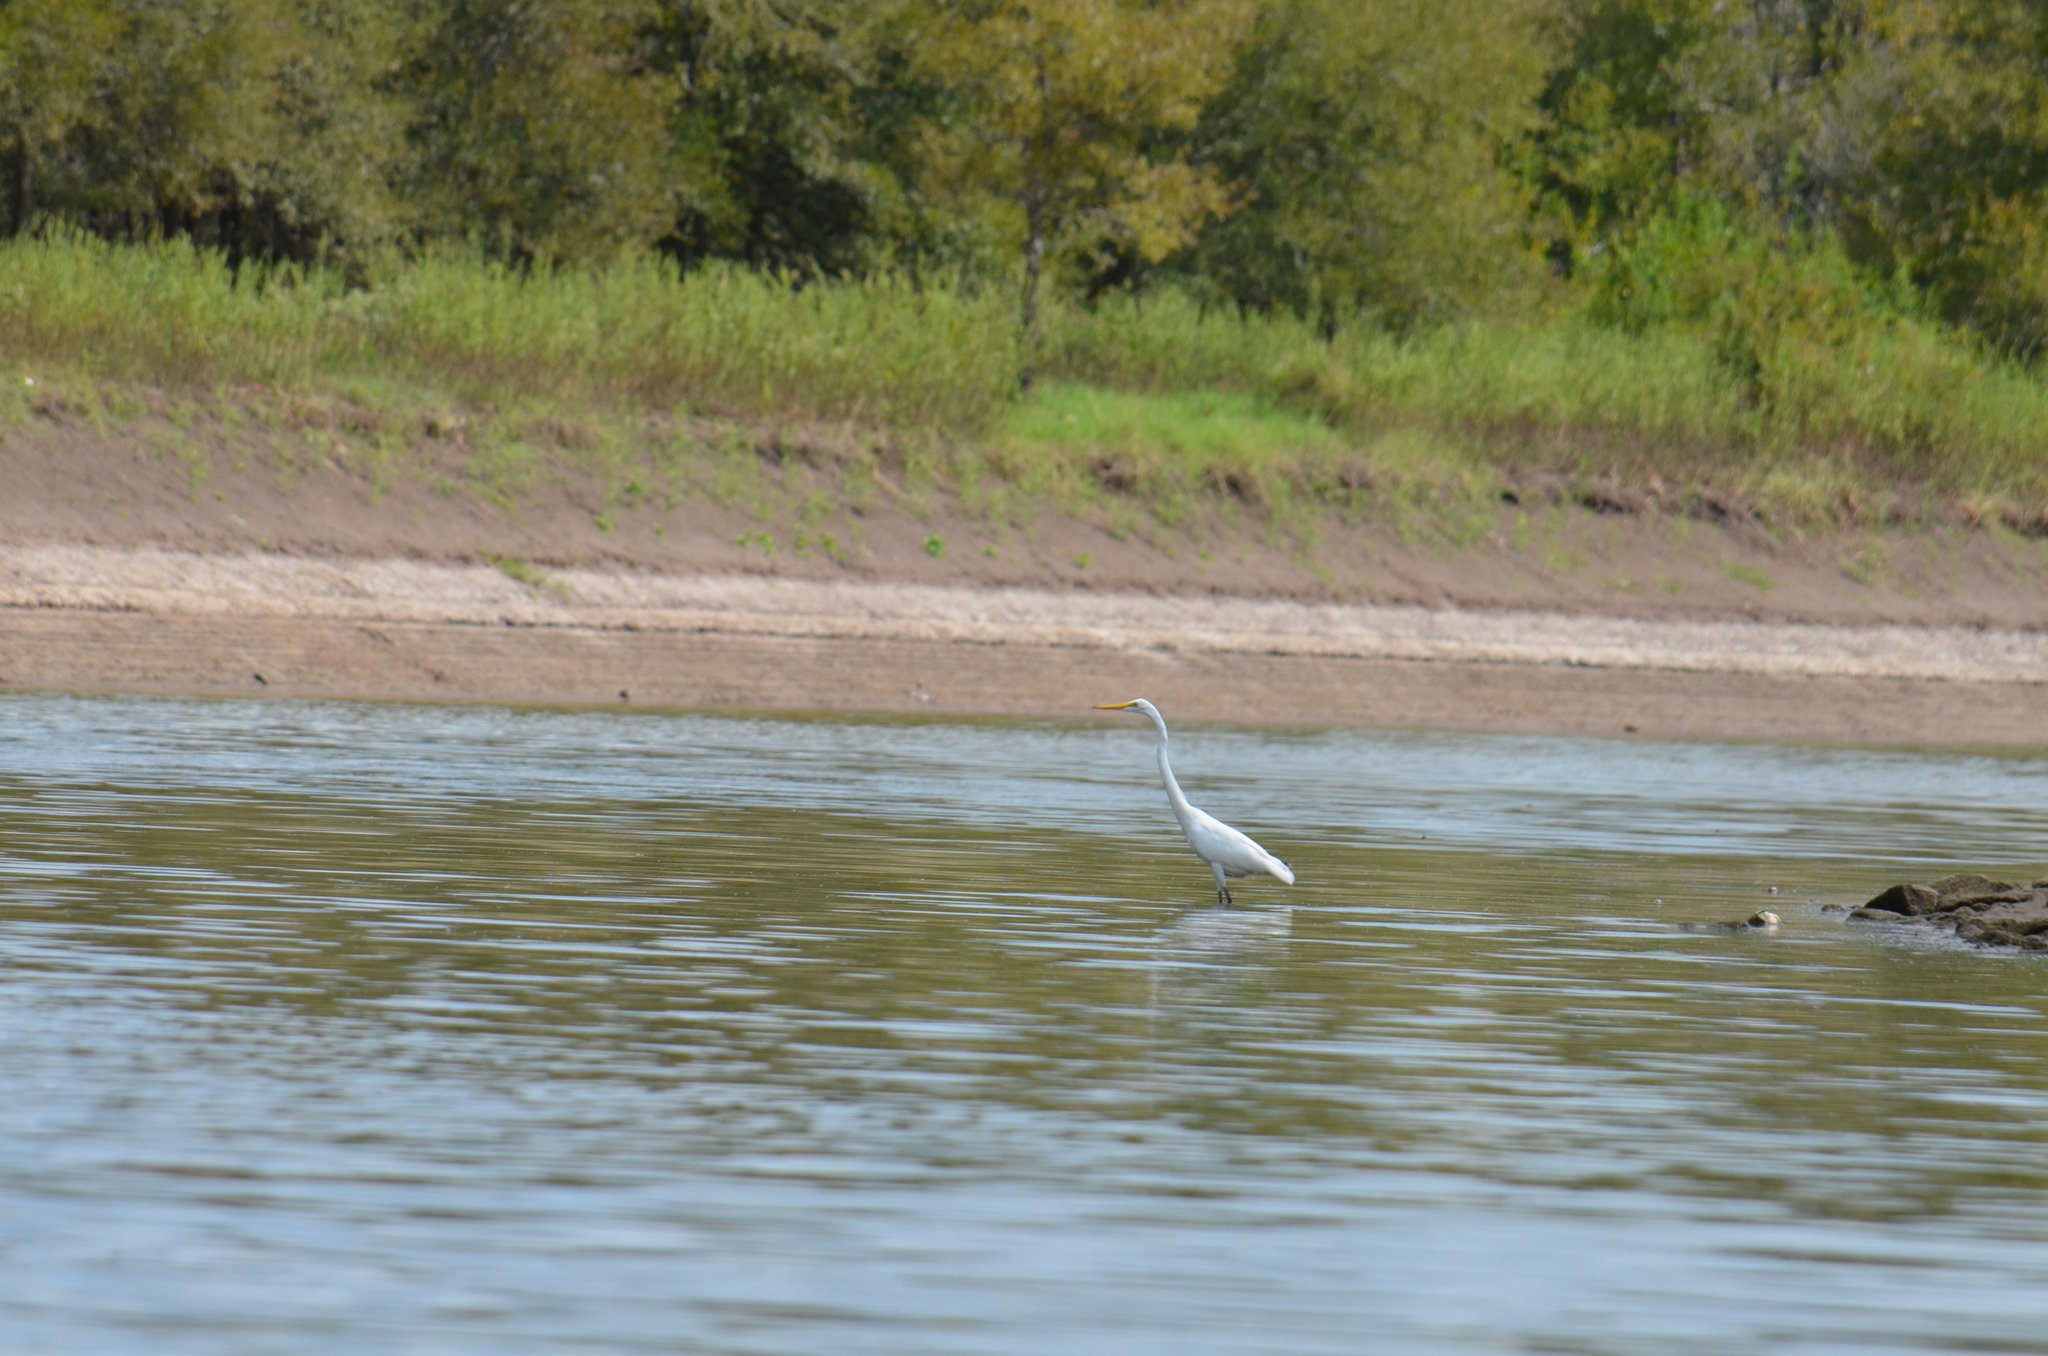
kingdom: Animalia
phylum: Chordata
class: Aves
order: Pelecaniformes
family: Ardeidae
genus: Ardea
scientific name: Ardea alba
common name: Great egret
